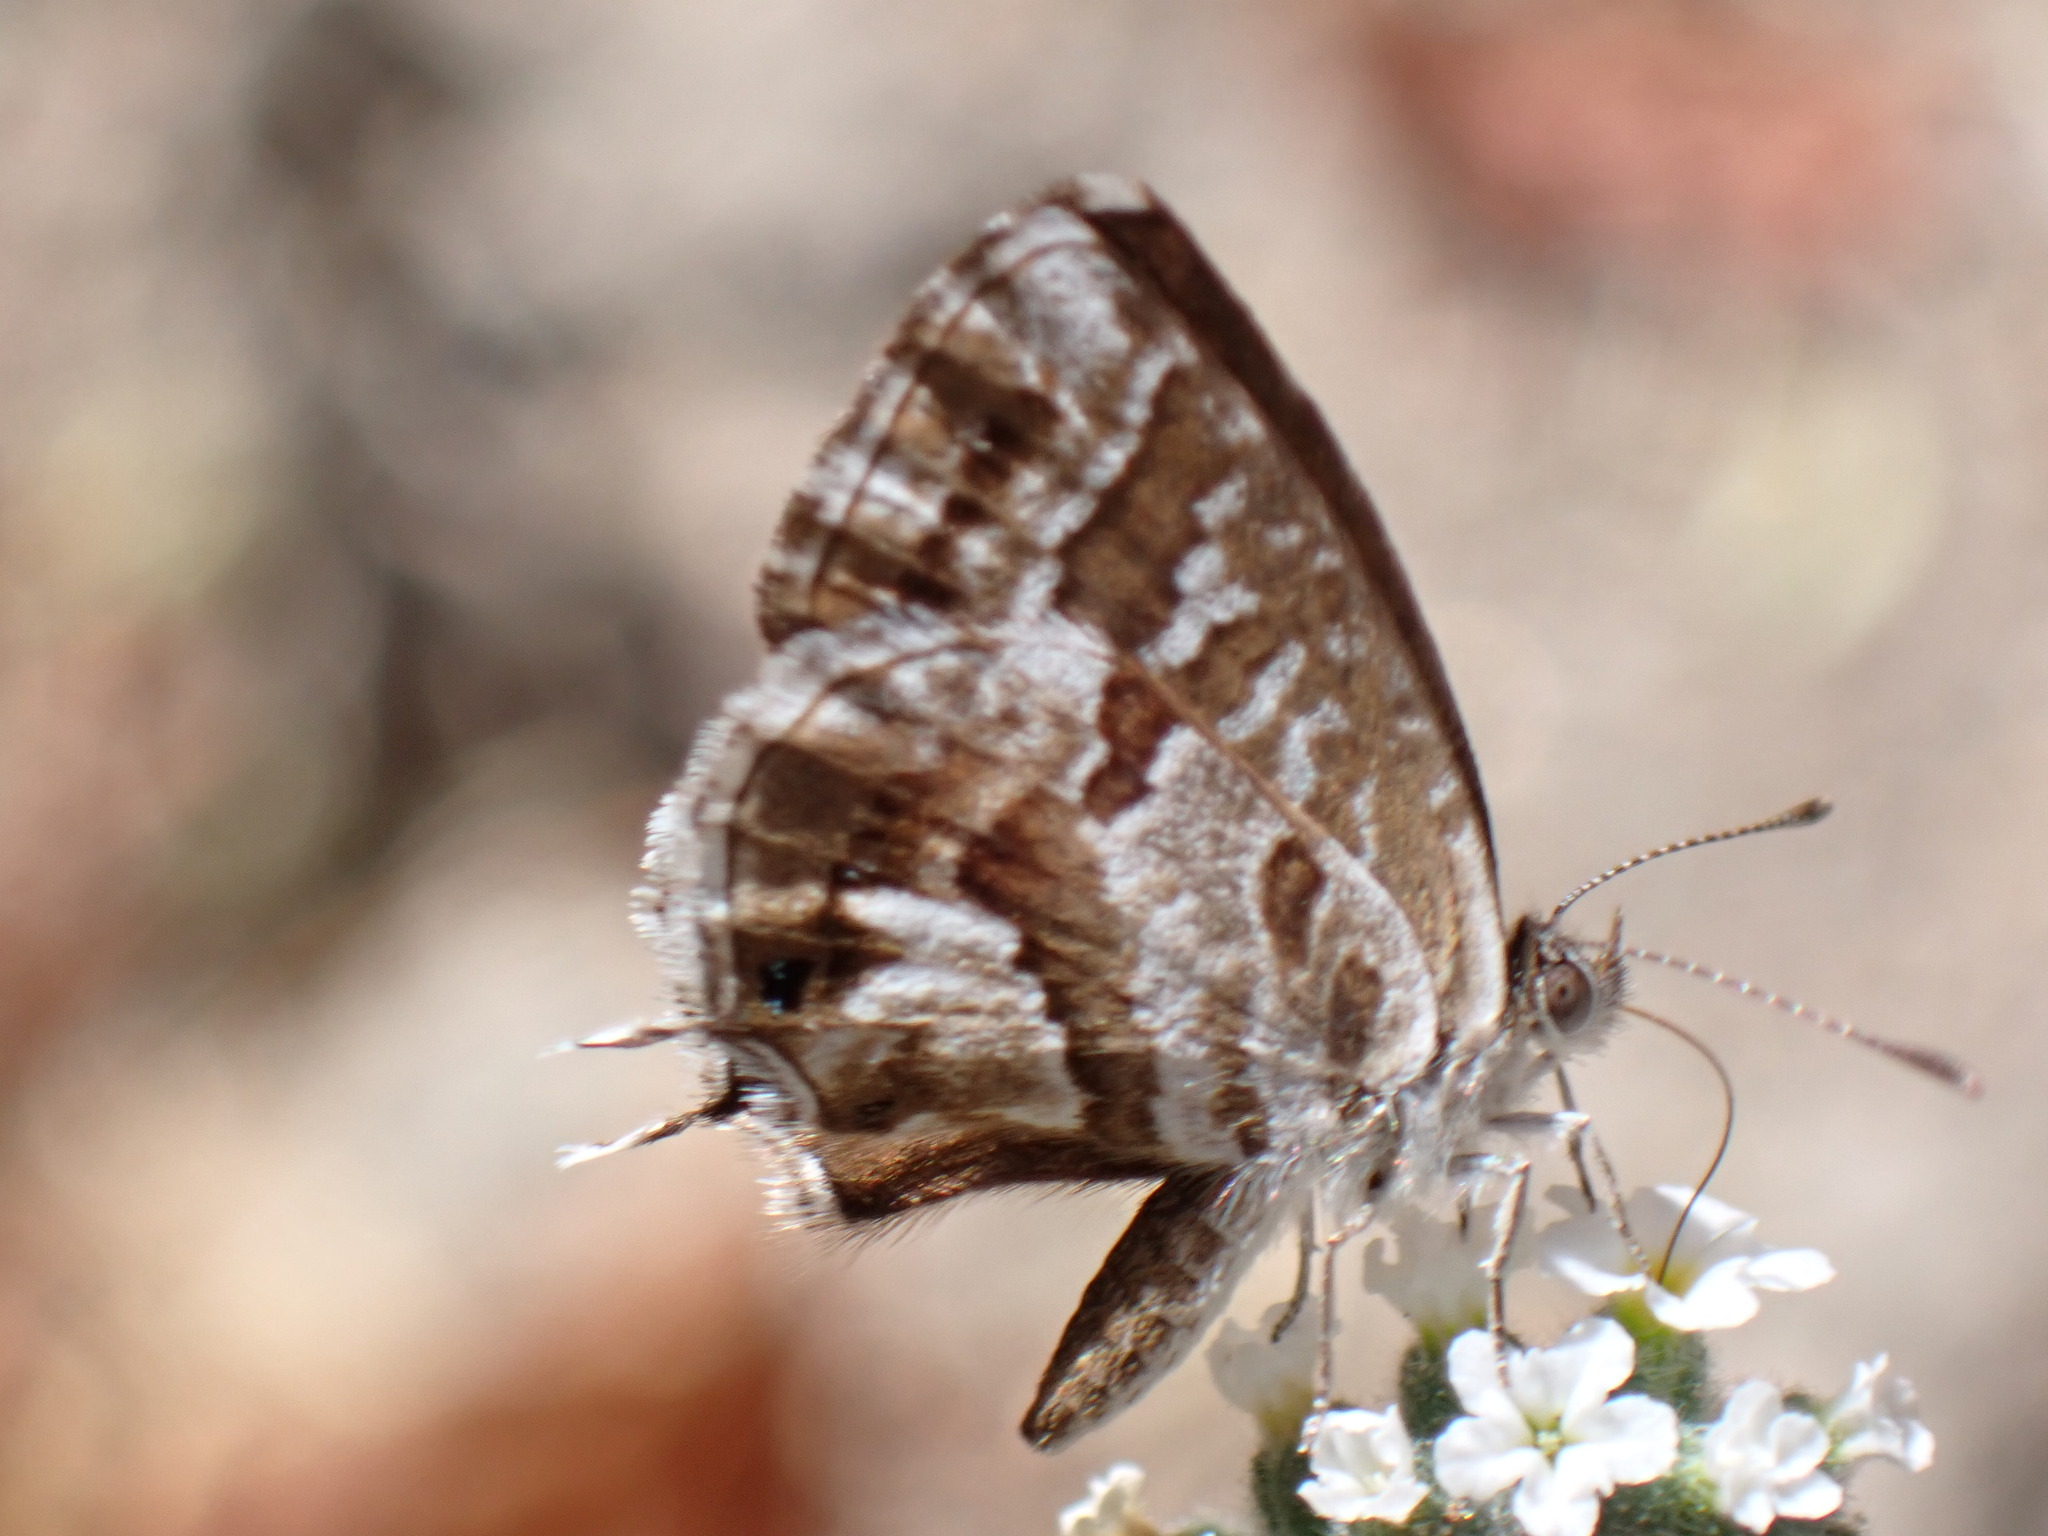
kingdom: Animalia
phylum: Arthropoda
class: Insecta
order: Lepidoptera
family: Lycaenidae
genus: Cacyreus
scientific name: Cacyreus marshalli
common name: Geranium bronze
